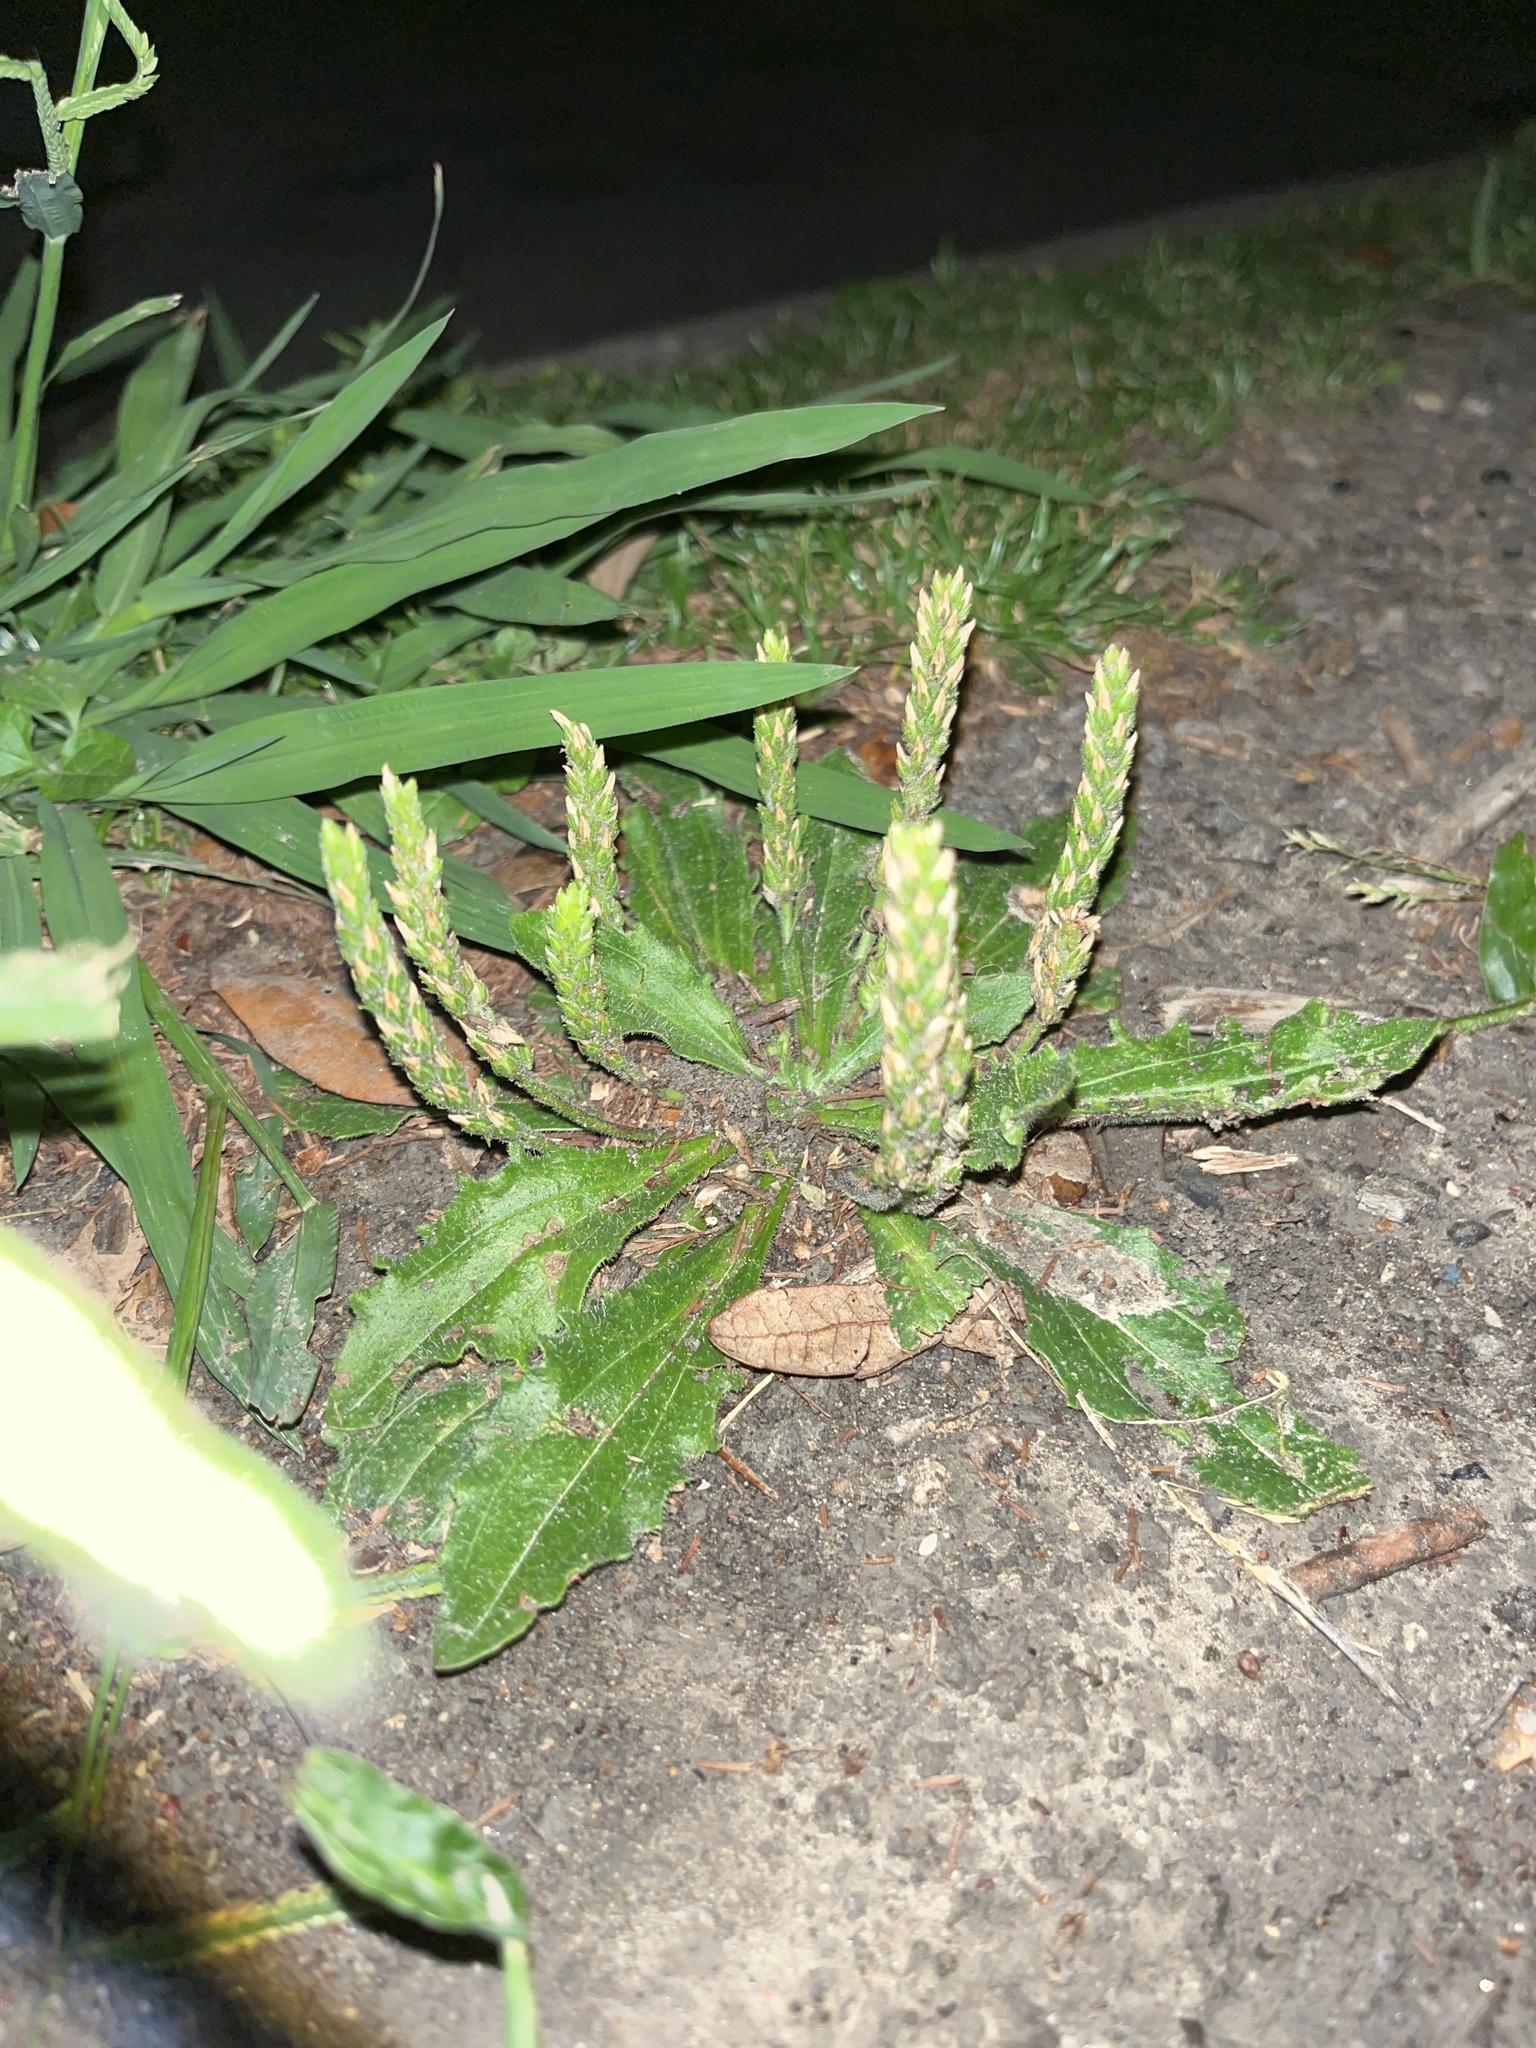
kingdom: Plantae
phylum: Tracheophyta
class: Magnoliopsida
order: Lamiales
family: Plantaginaceae
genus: Plantago
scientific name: Plantago rhodosperma
